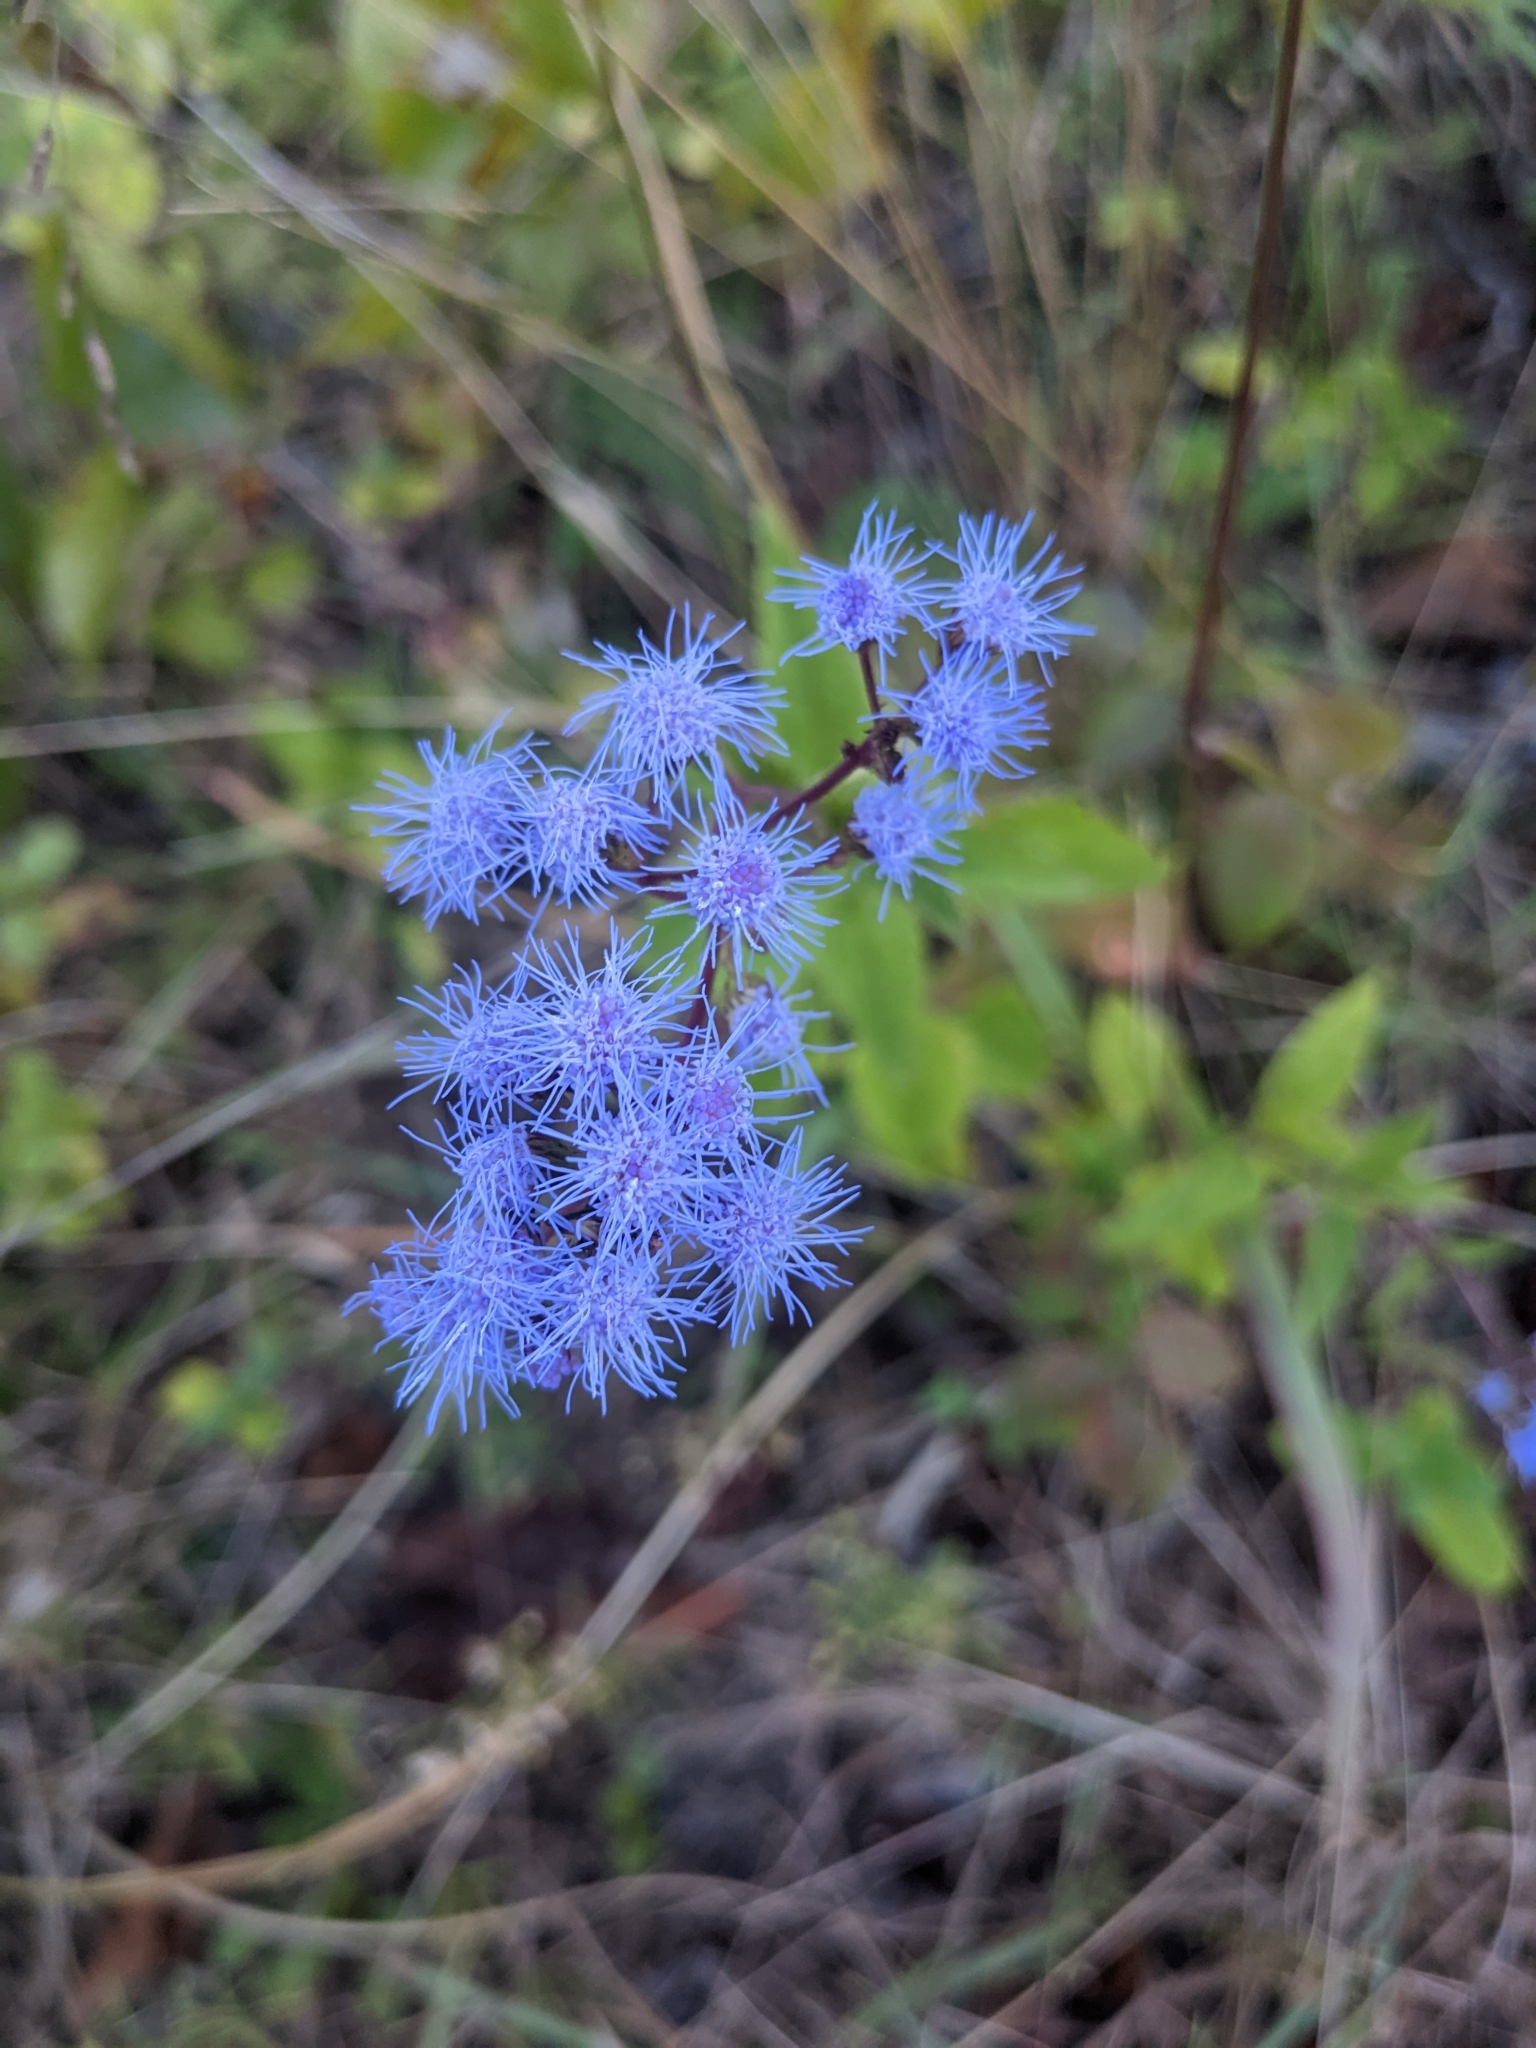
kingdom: Plantae
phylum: Tracheophyta
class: Magnoliopsida
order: Asterales
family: Asteraceae
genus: Conoclinium
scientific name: Conoclinium coelestinum
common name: Blue mistflower
